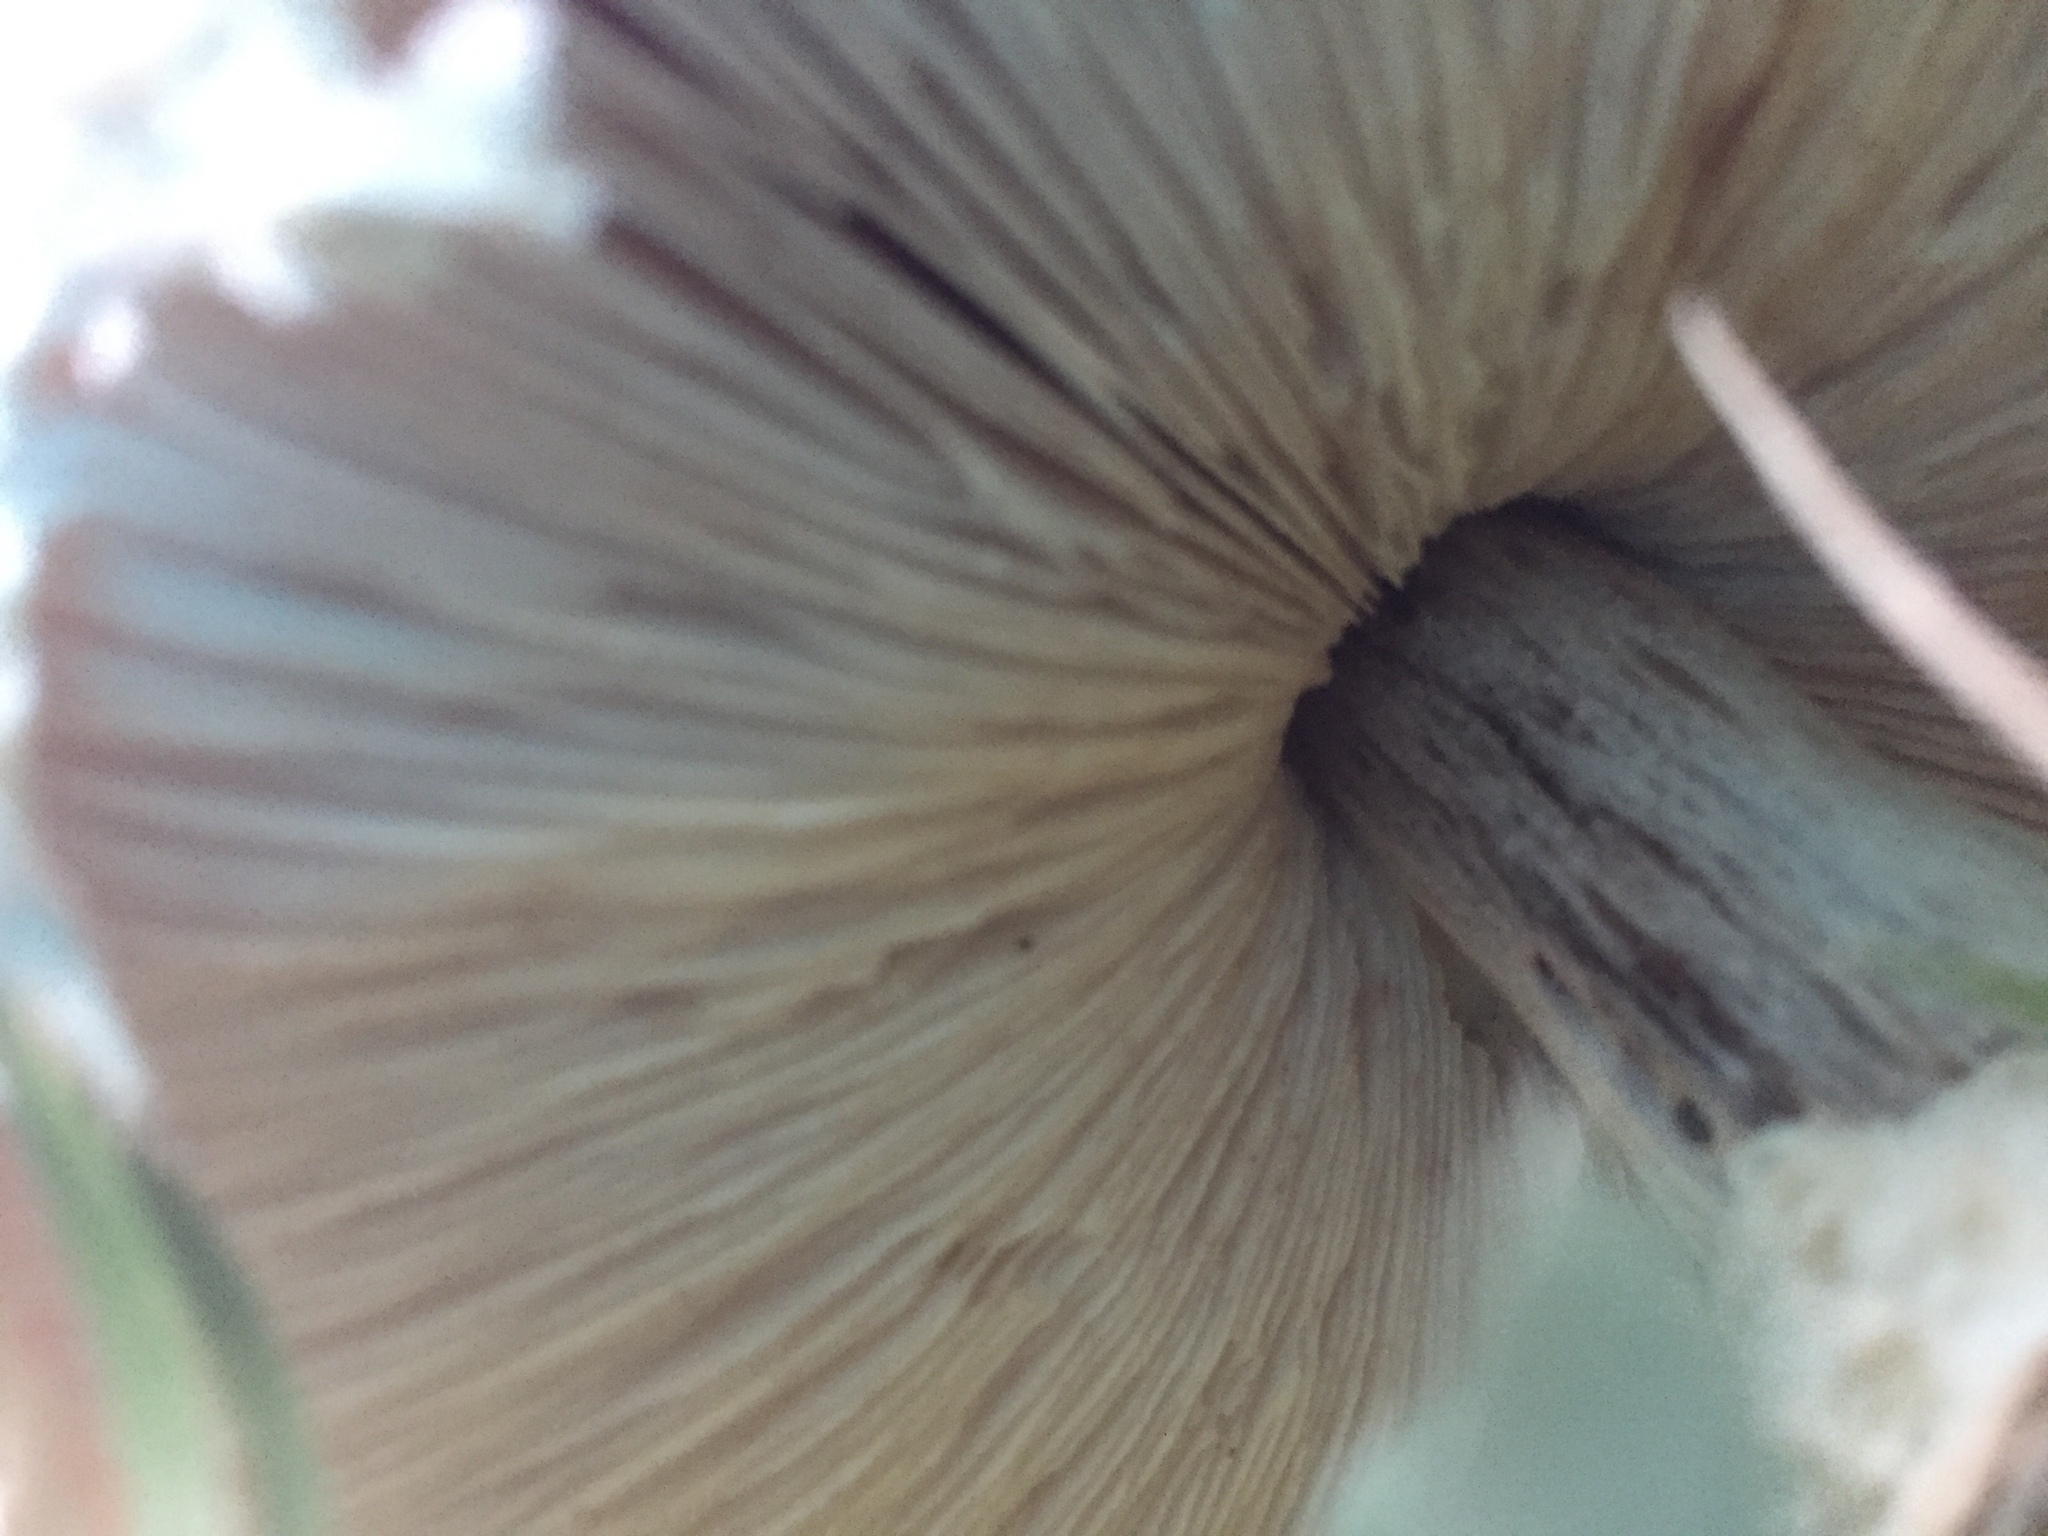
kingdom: Fungi
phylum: Basidiomycota
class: Agaricomycetes
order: Agaricales
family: Agaricaceae
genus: Macrolepiota
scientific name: Macrolepiota zeyheri
